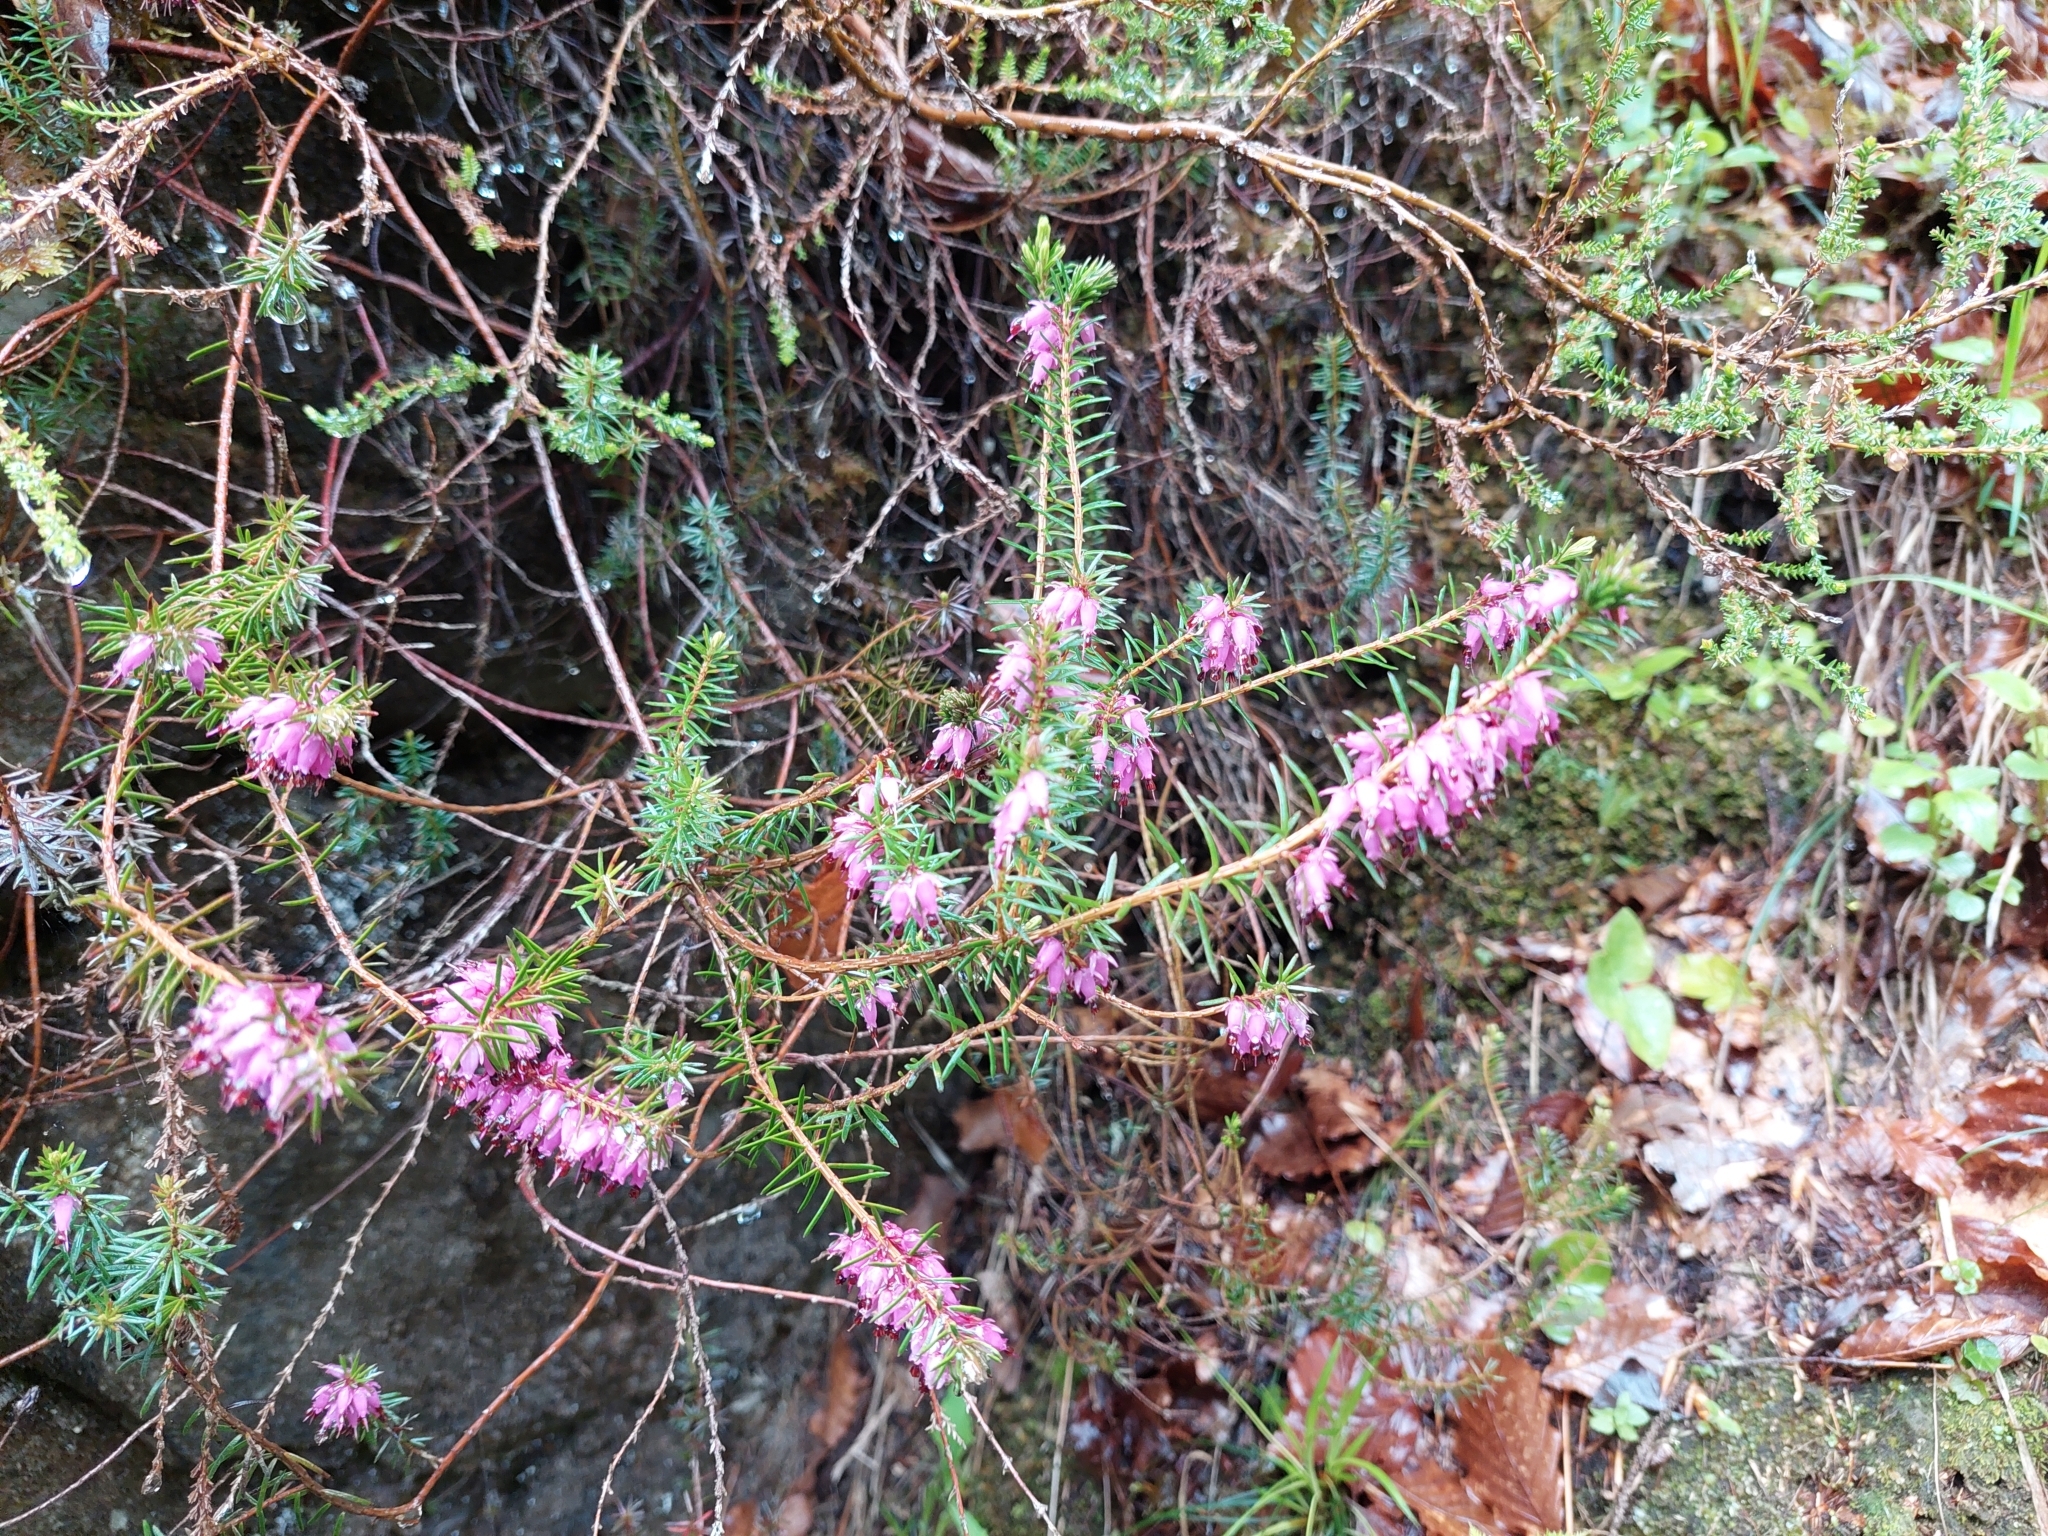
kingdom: Plantae
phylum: Tracheophyta
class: Magnoliopsida
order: Ericales
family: Ericaceae
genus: Erica
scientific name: Erica carnea
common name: Winter heath
